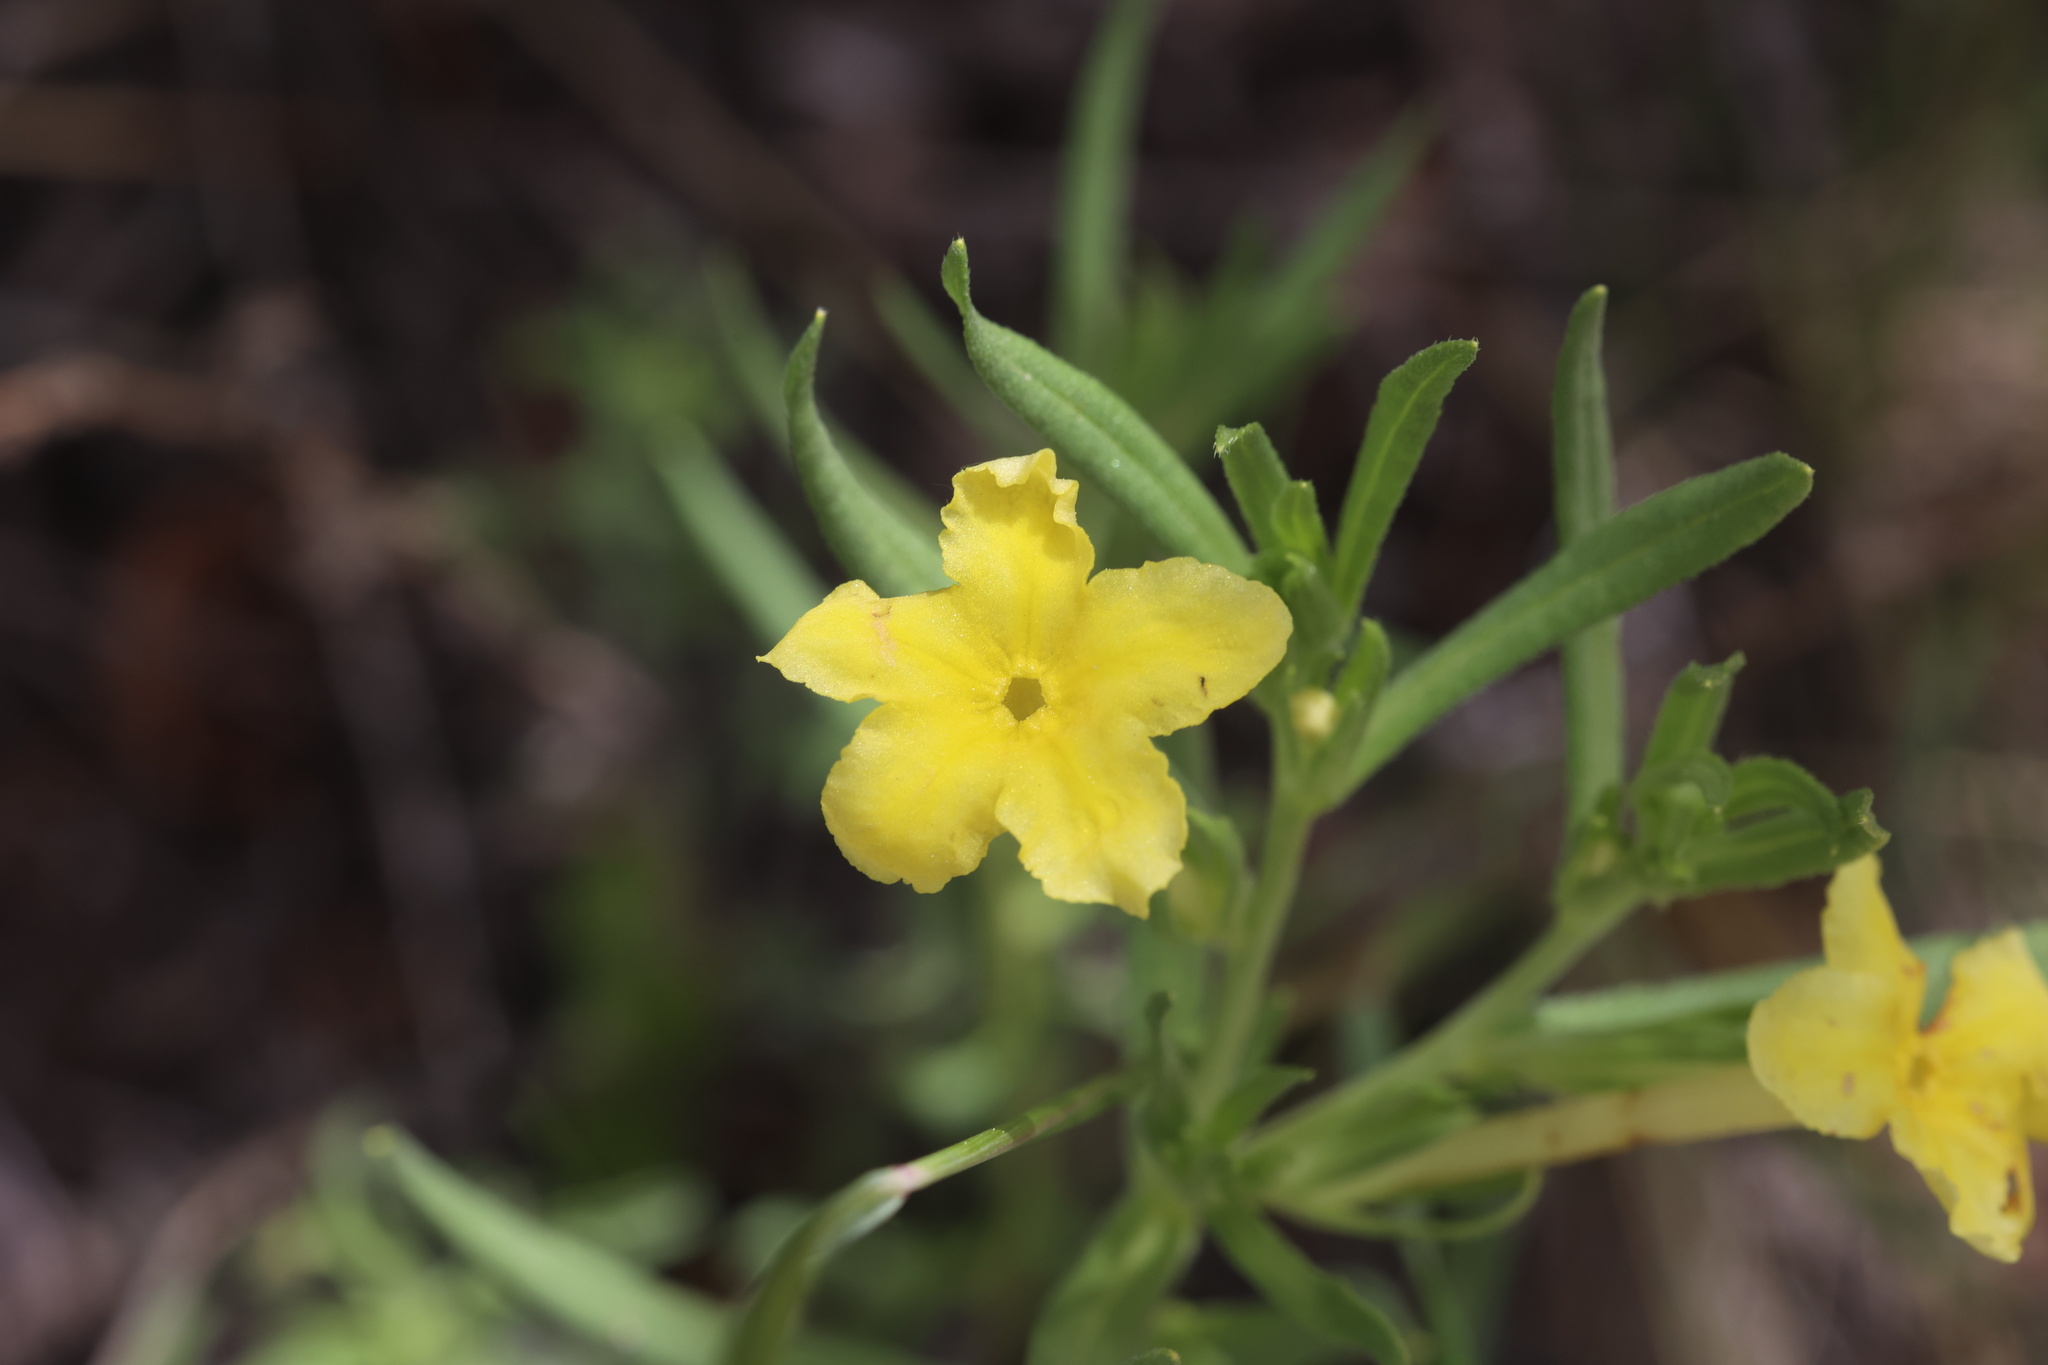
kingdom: Plantae
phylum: Tracheophyta
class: Magnoliopsida
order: Boraginales
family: Boraginaceae
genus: Lithospermum
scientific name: Lithospermum incisum
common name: Fringed gromwell
